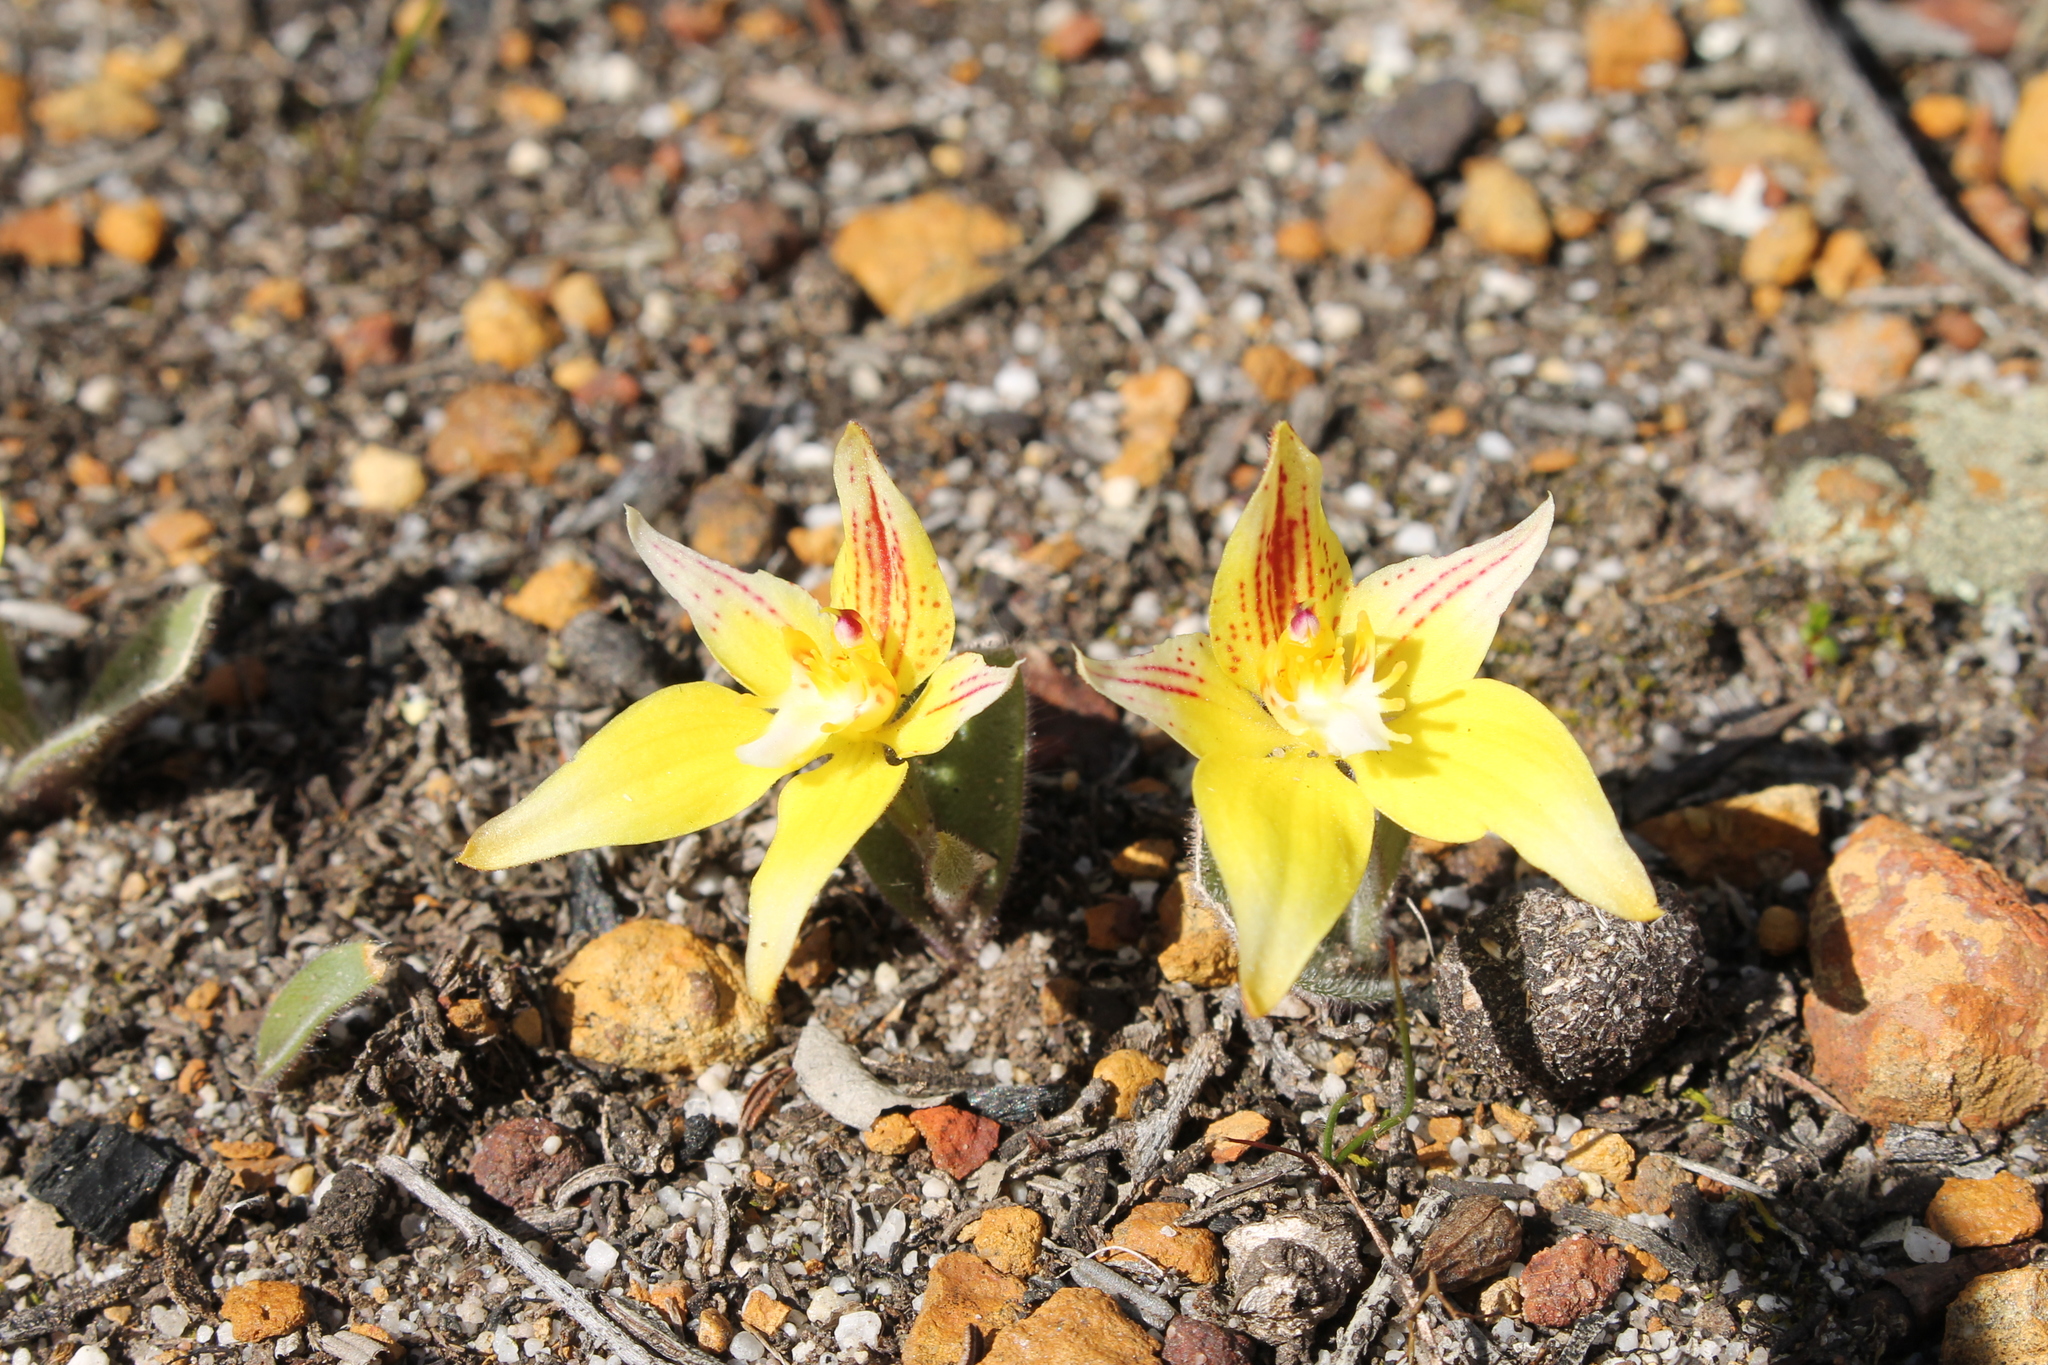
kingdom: Plantae
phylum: Tracheophyta
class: Liliopsida
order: Asparagales
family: Orchidaceae
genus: Caladenia
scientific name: Caladenia flava
